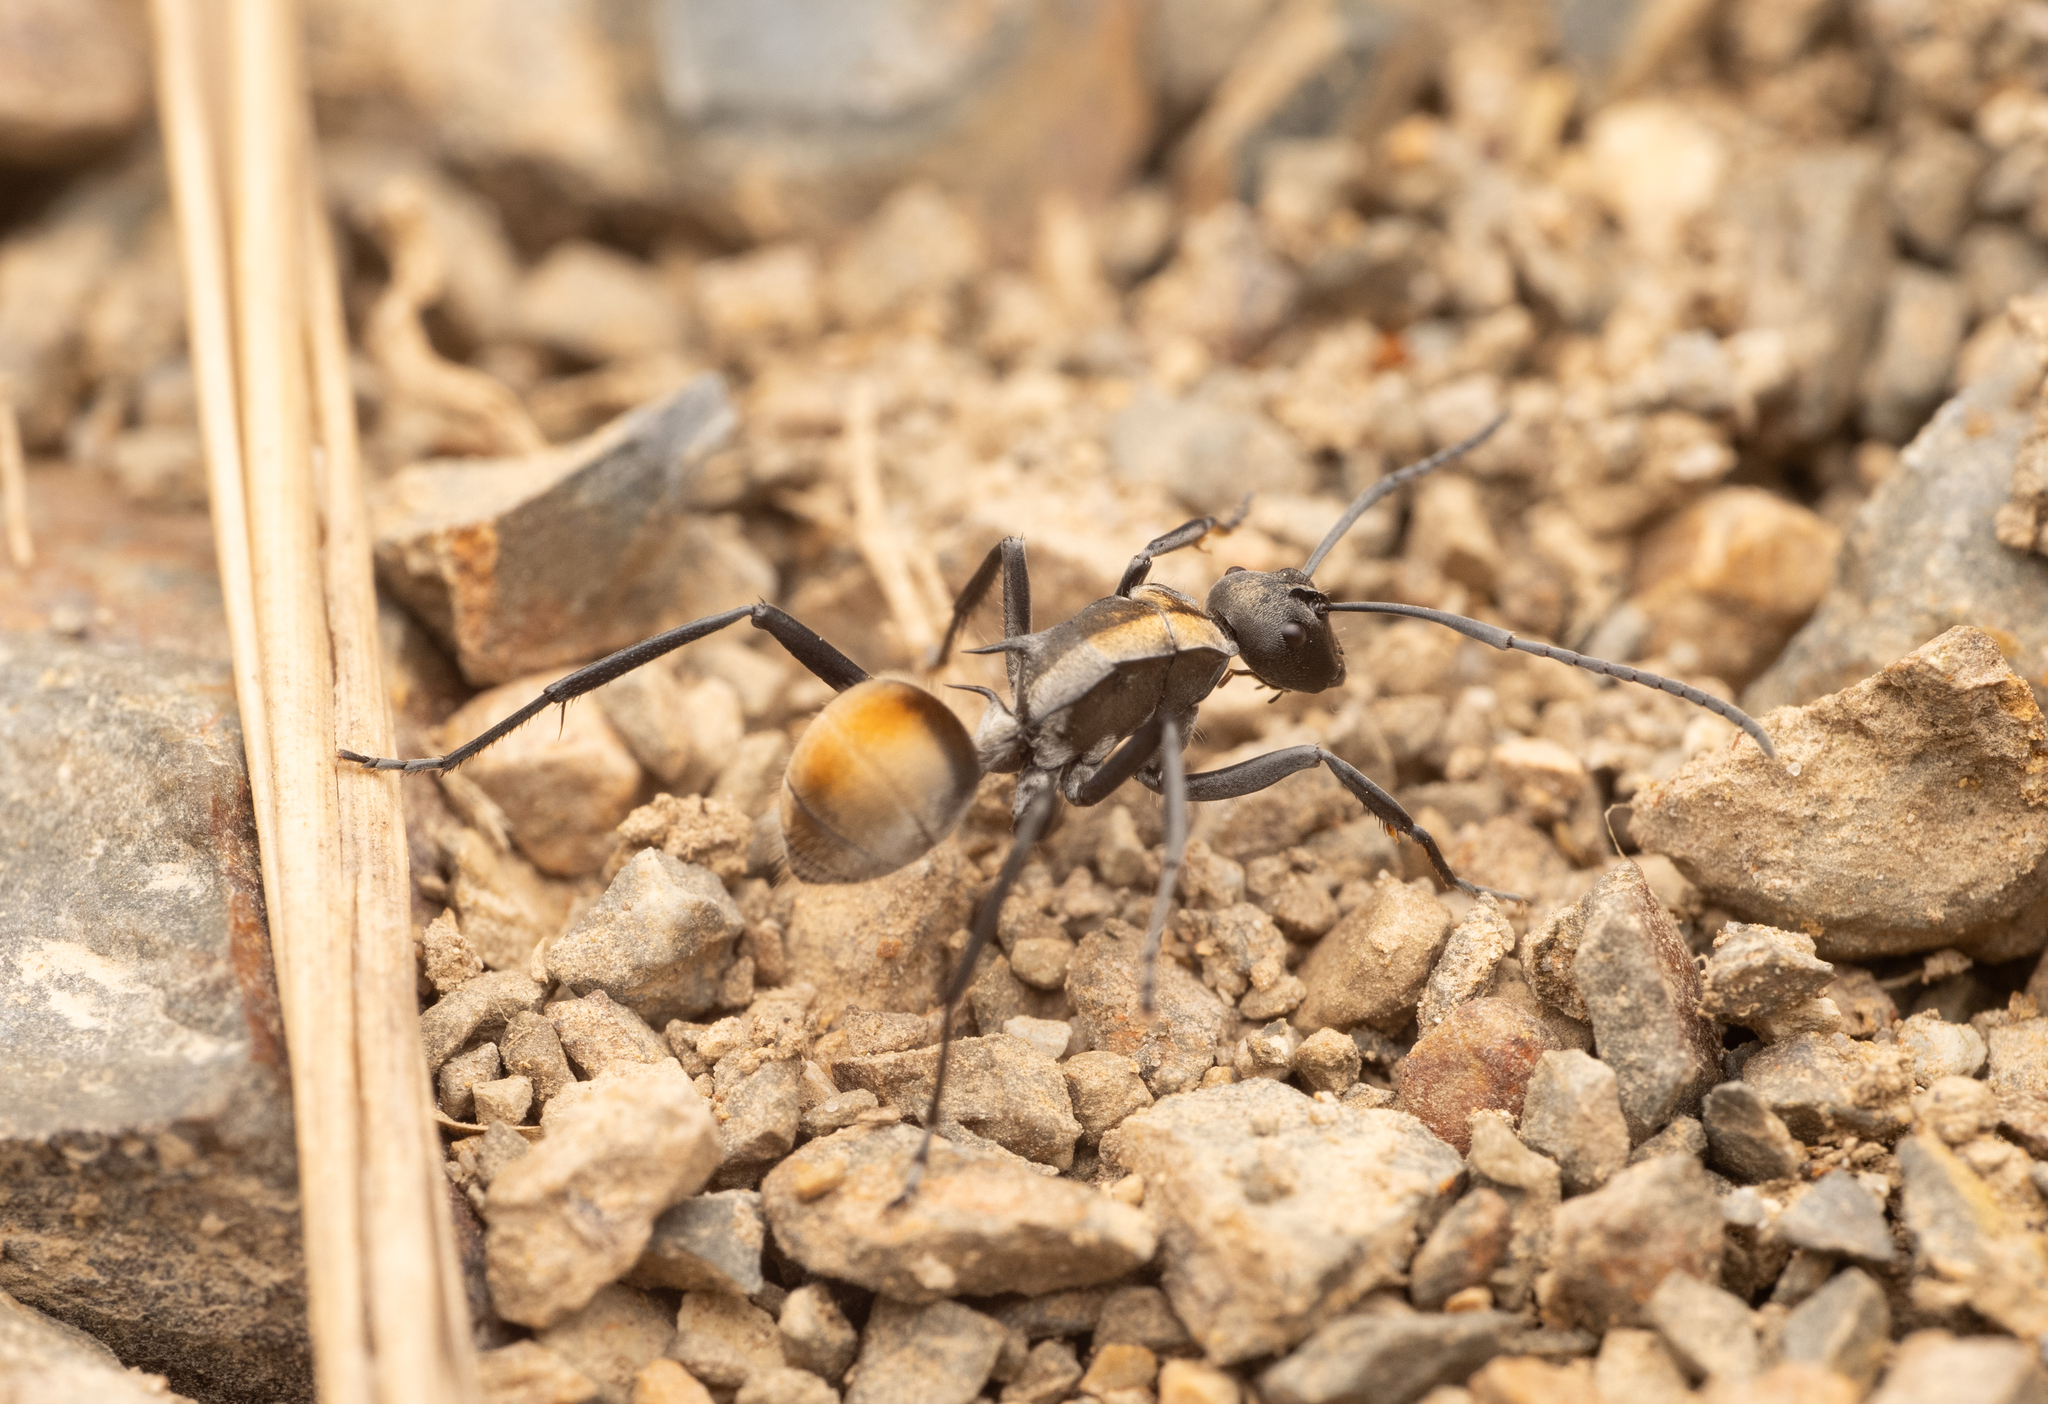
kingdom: Animalia
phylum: Arthropoda
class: Insecta
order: Hymenoptera
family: Formicidae
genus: Polyrhachis
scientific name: Polyrhachis ammon
